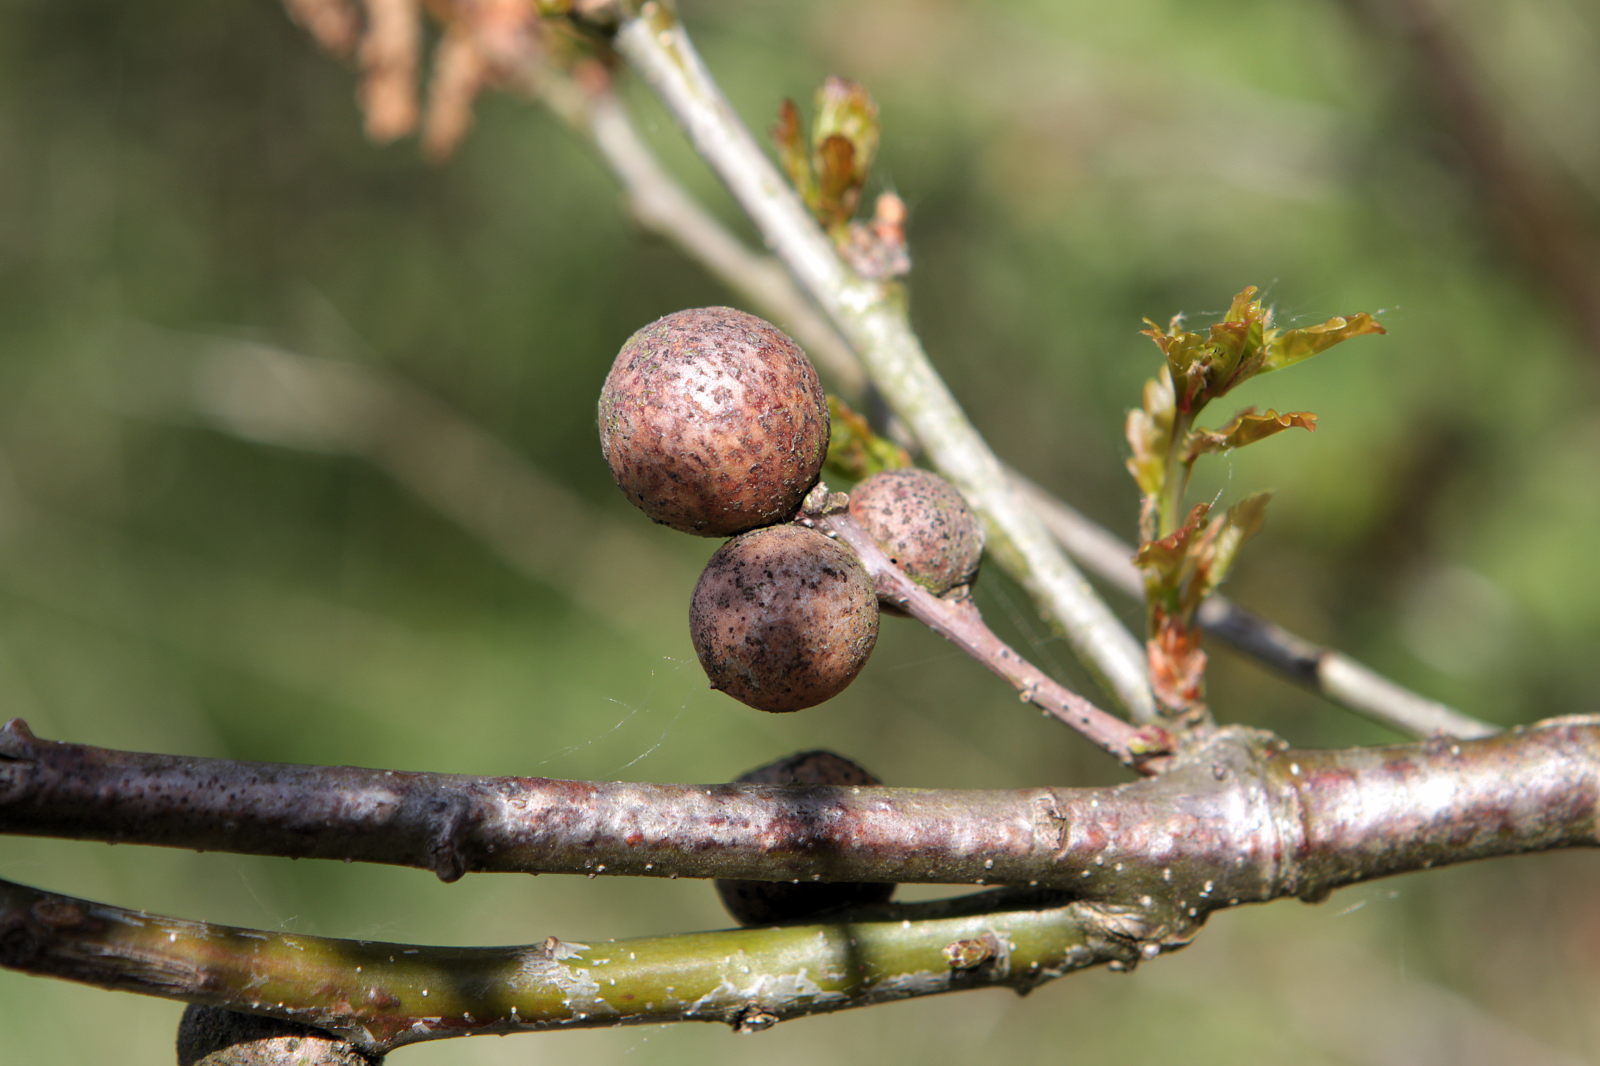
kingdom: Animalia
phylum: Arthropoda
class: Insecta
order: Hymenoptera
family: Cynipidae
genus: Andricus
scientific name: Andricus kollari
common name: Marble gall
